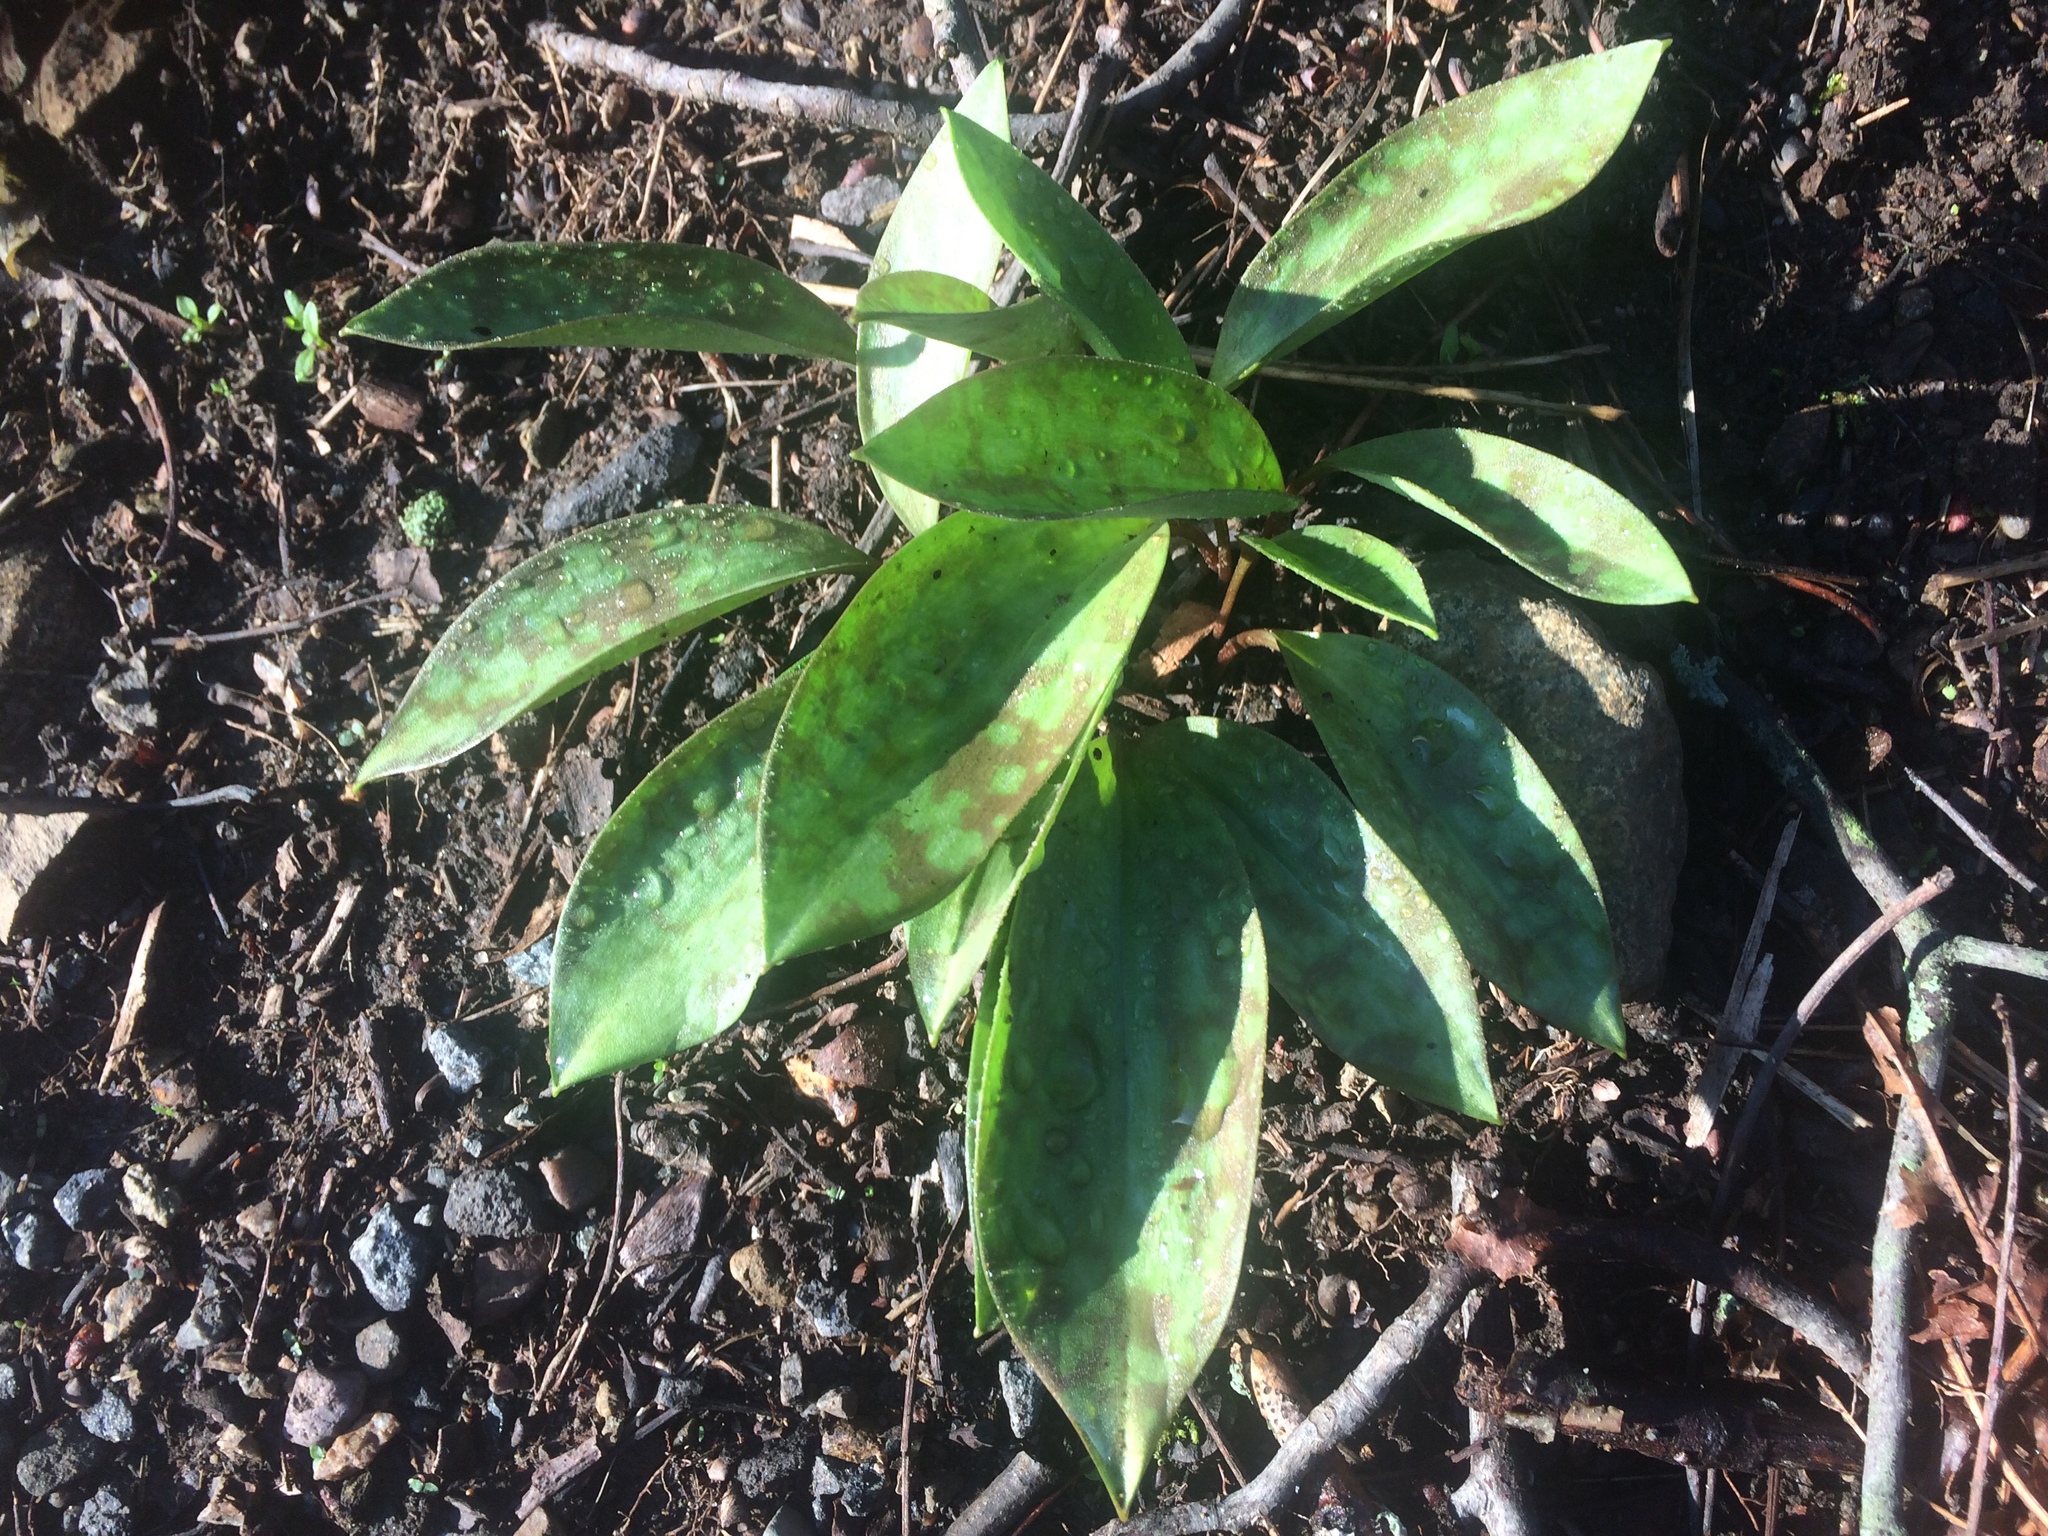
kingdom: Plantae
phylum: Tracheophyta
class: Liliopsida
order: Liliales
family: Liliaceae
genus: Erythronium
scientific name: Erythronium americanum
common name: Yellow adder's-tongue
